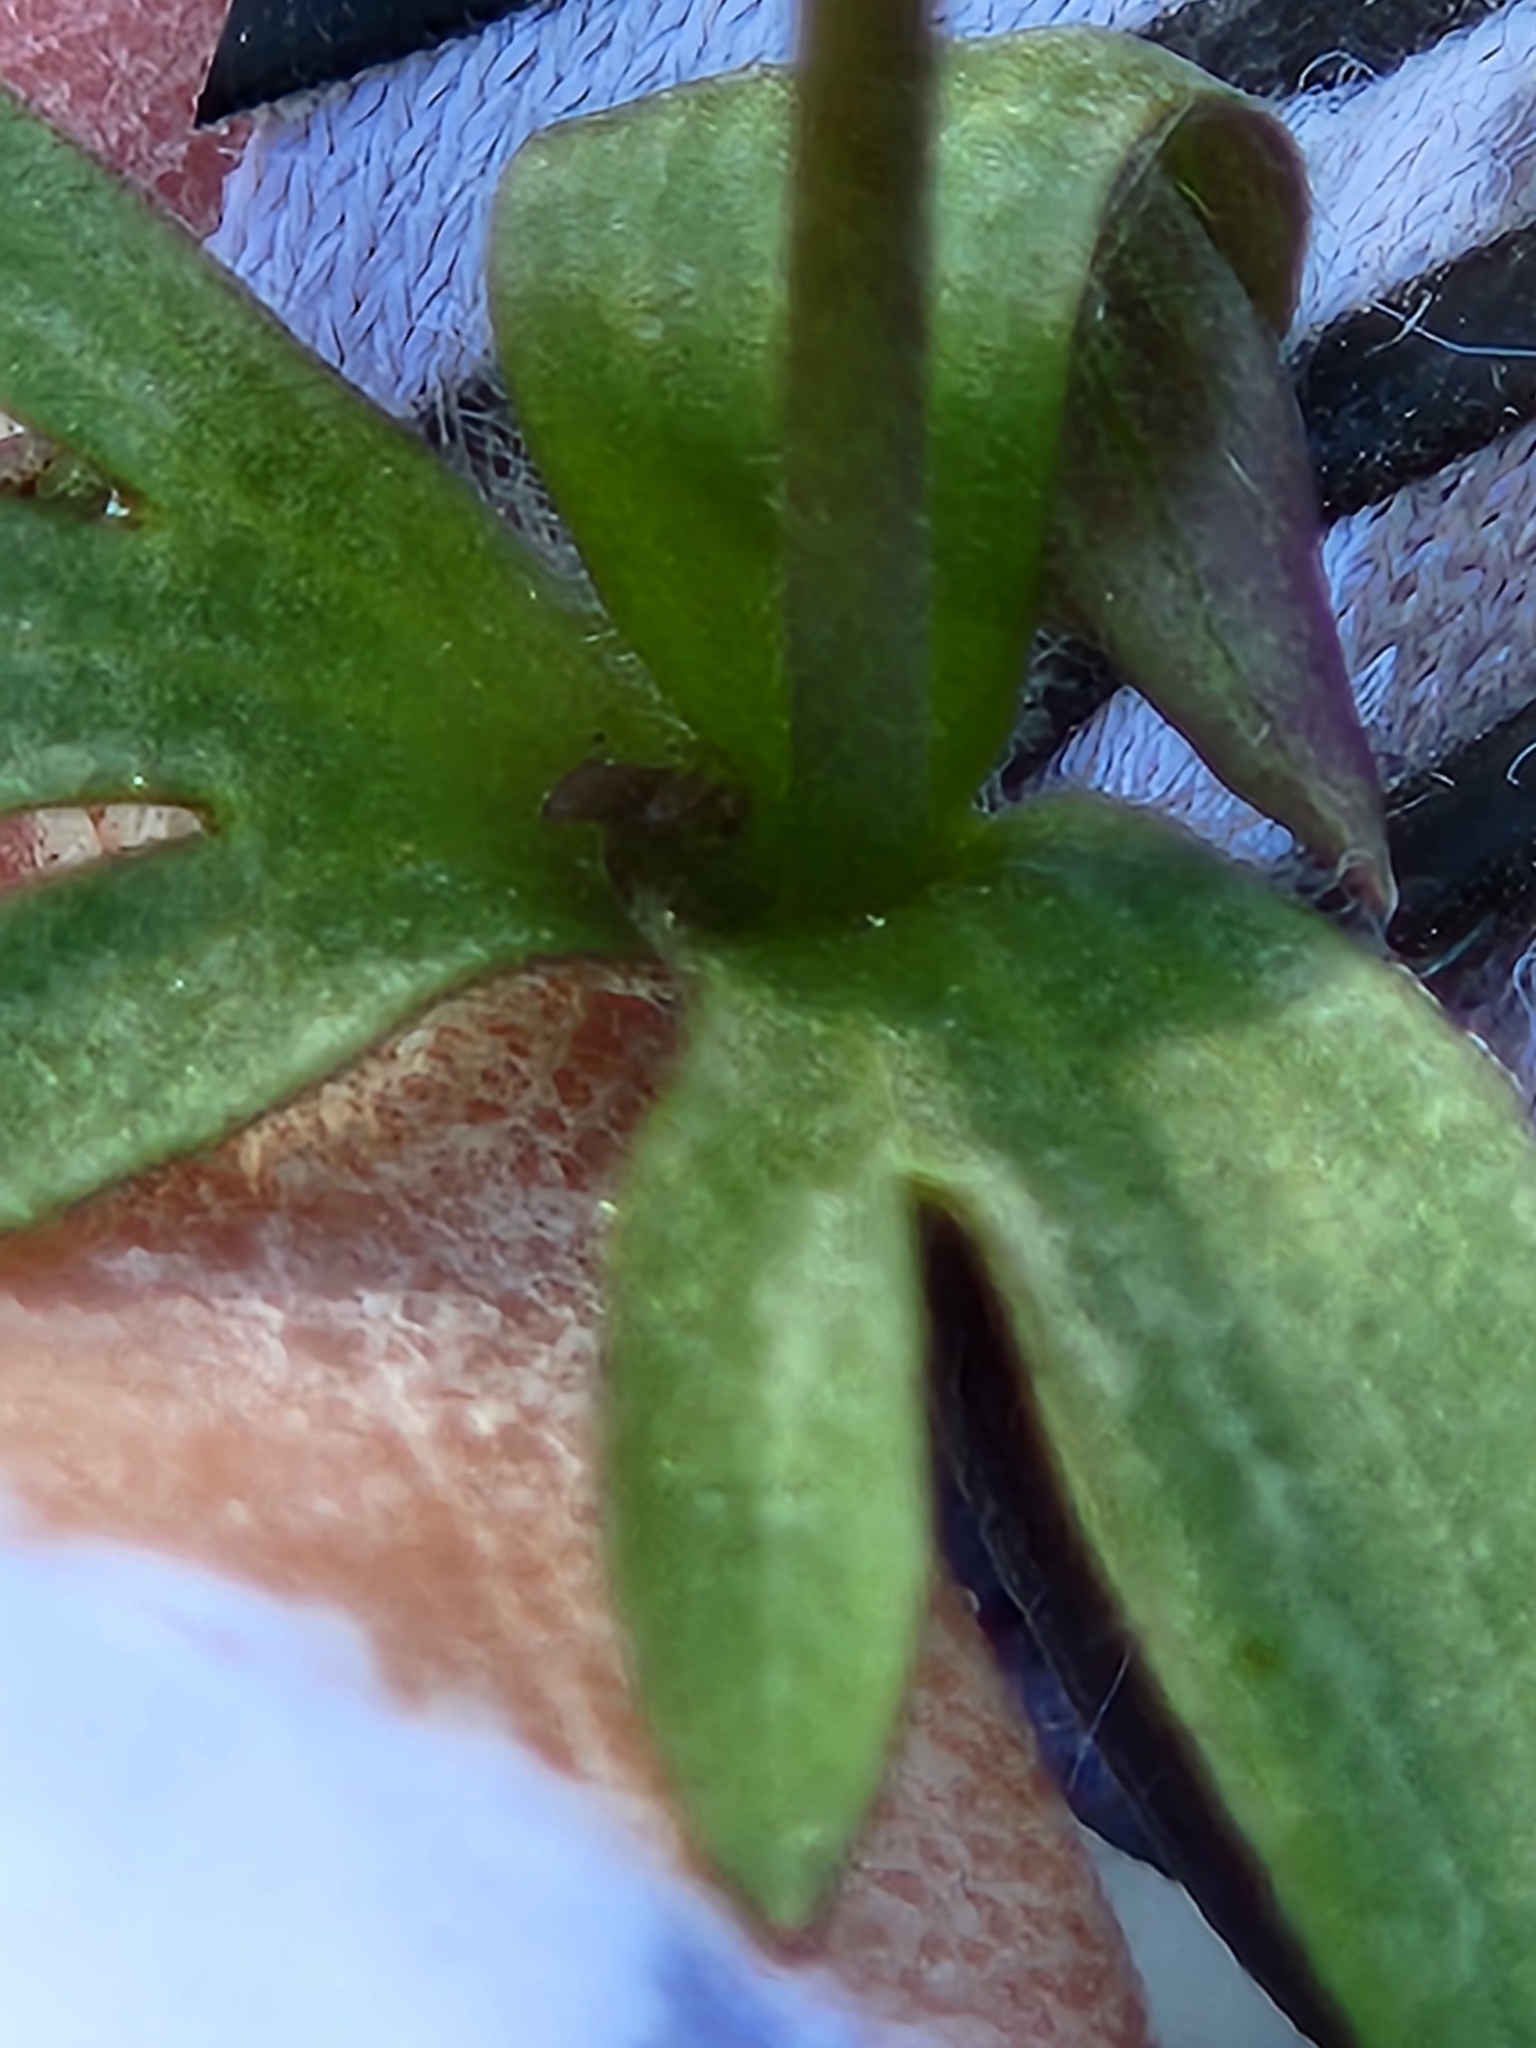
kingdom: Plantae
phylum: Tracheophyta
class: Magnoliopsida
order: Ranunculales
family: Ranunculaceae
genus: Anemone
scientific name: Anemone edwardsiana
